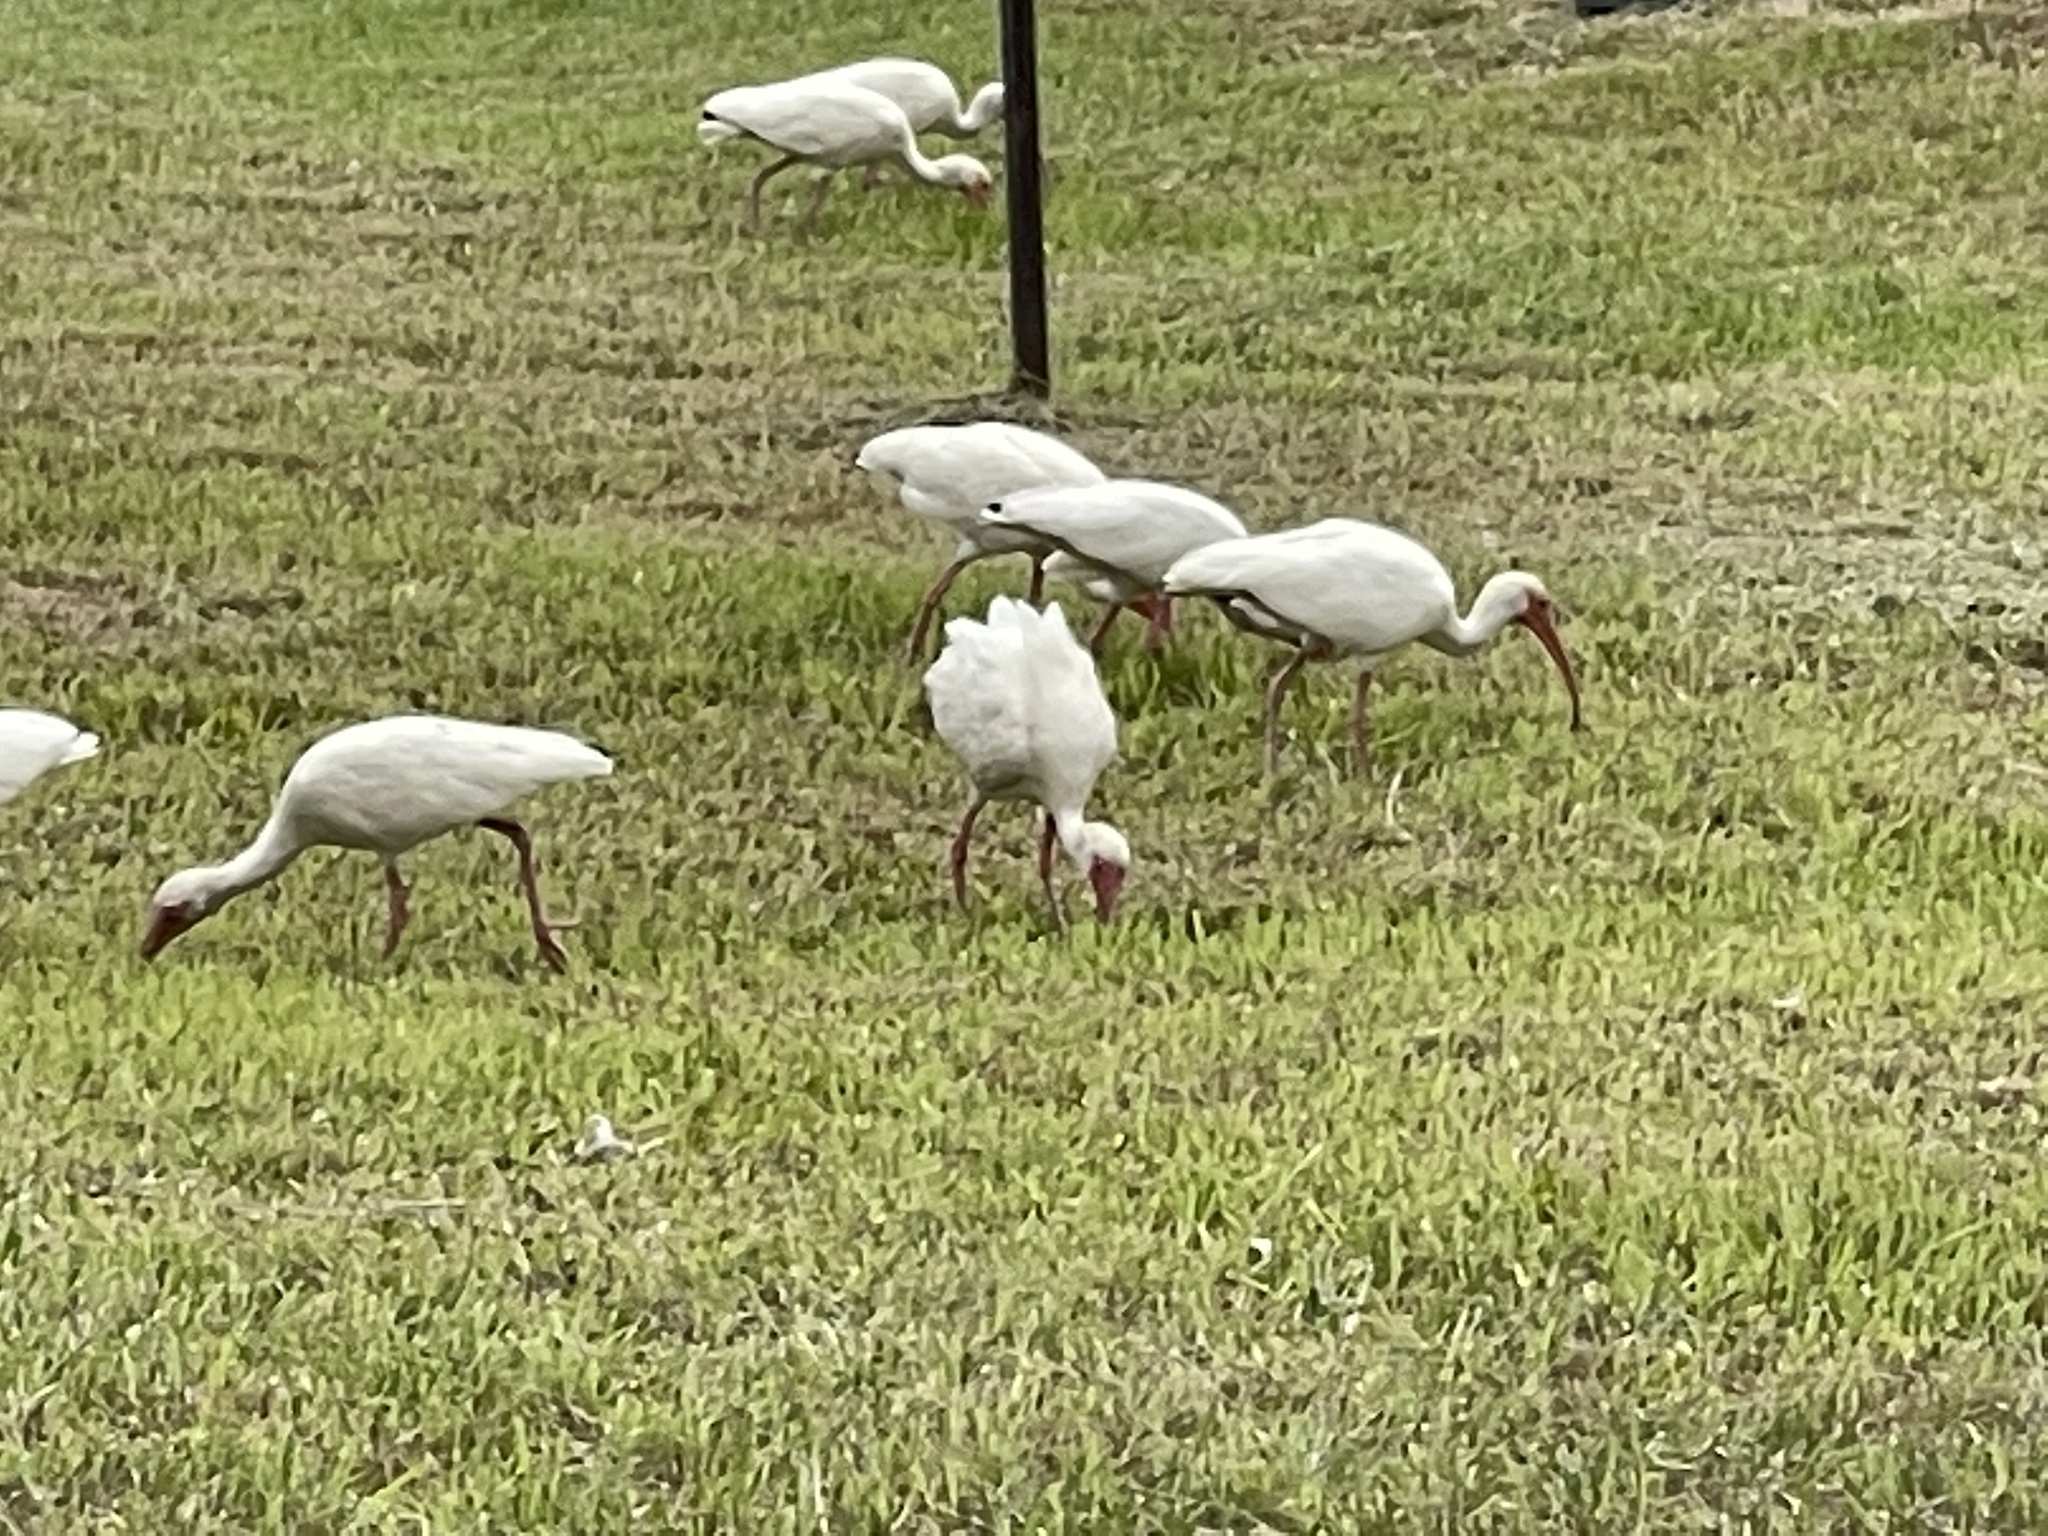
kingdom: Animalia
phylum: Chordata
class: Aves
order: Pelecaniformes
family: Threskiornithidae
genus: Eudocimus
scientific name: Eudocimus albus
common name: White ibis
